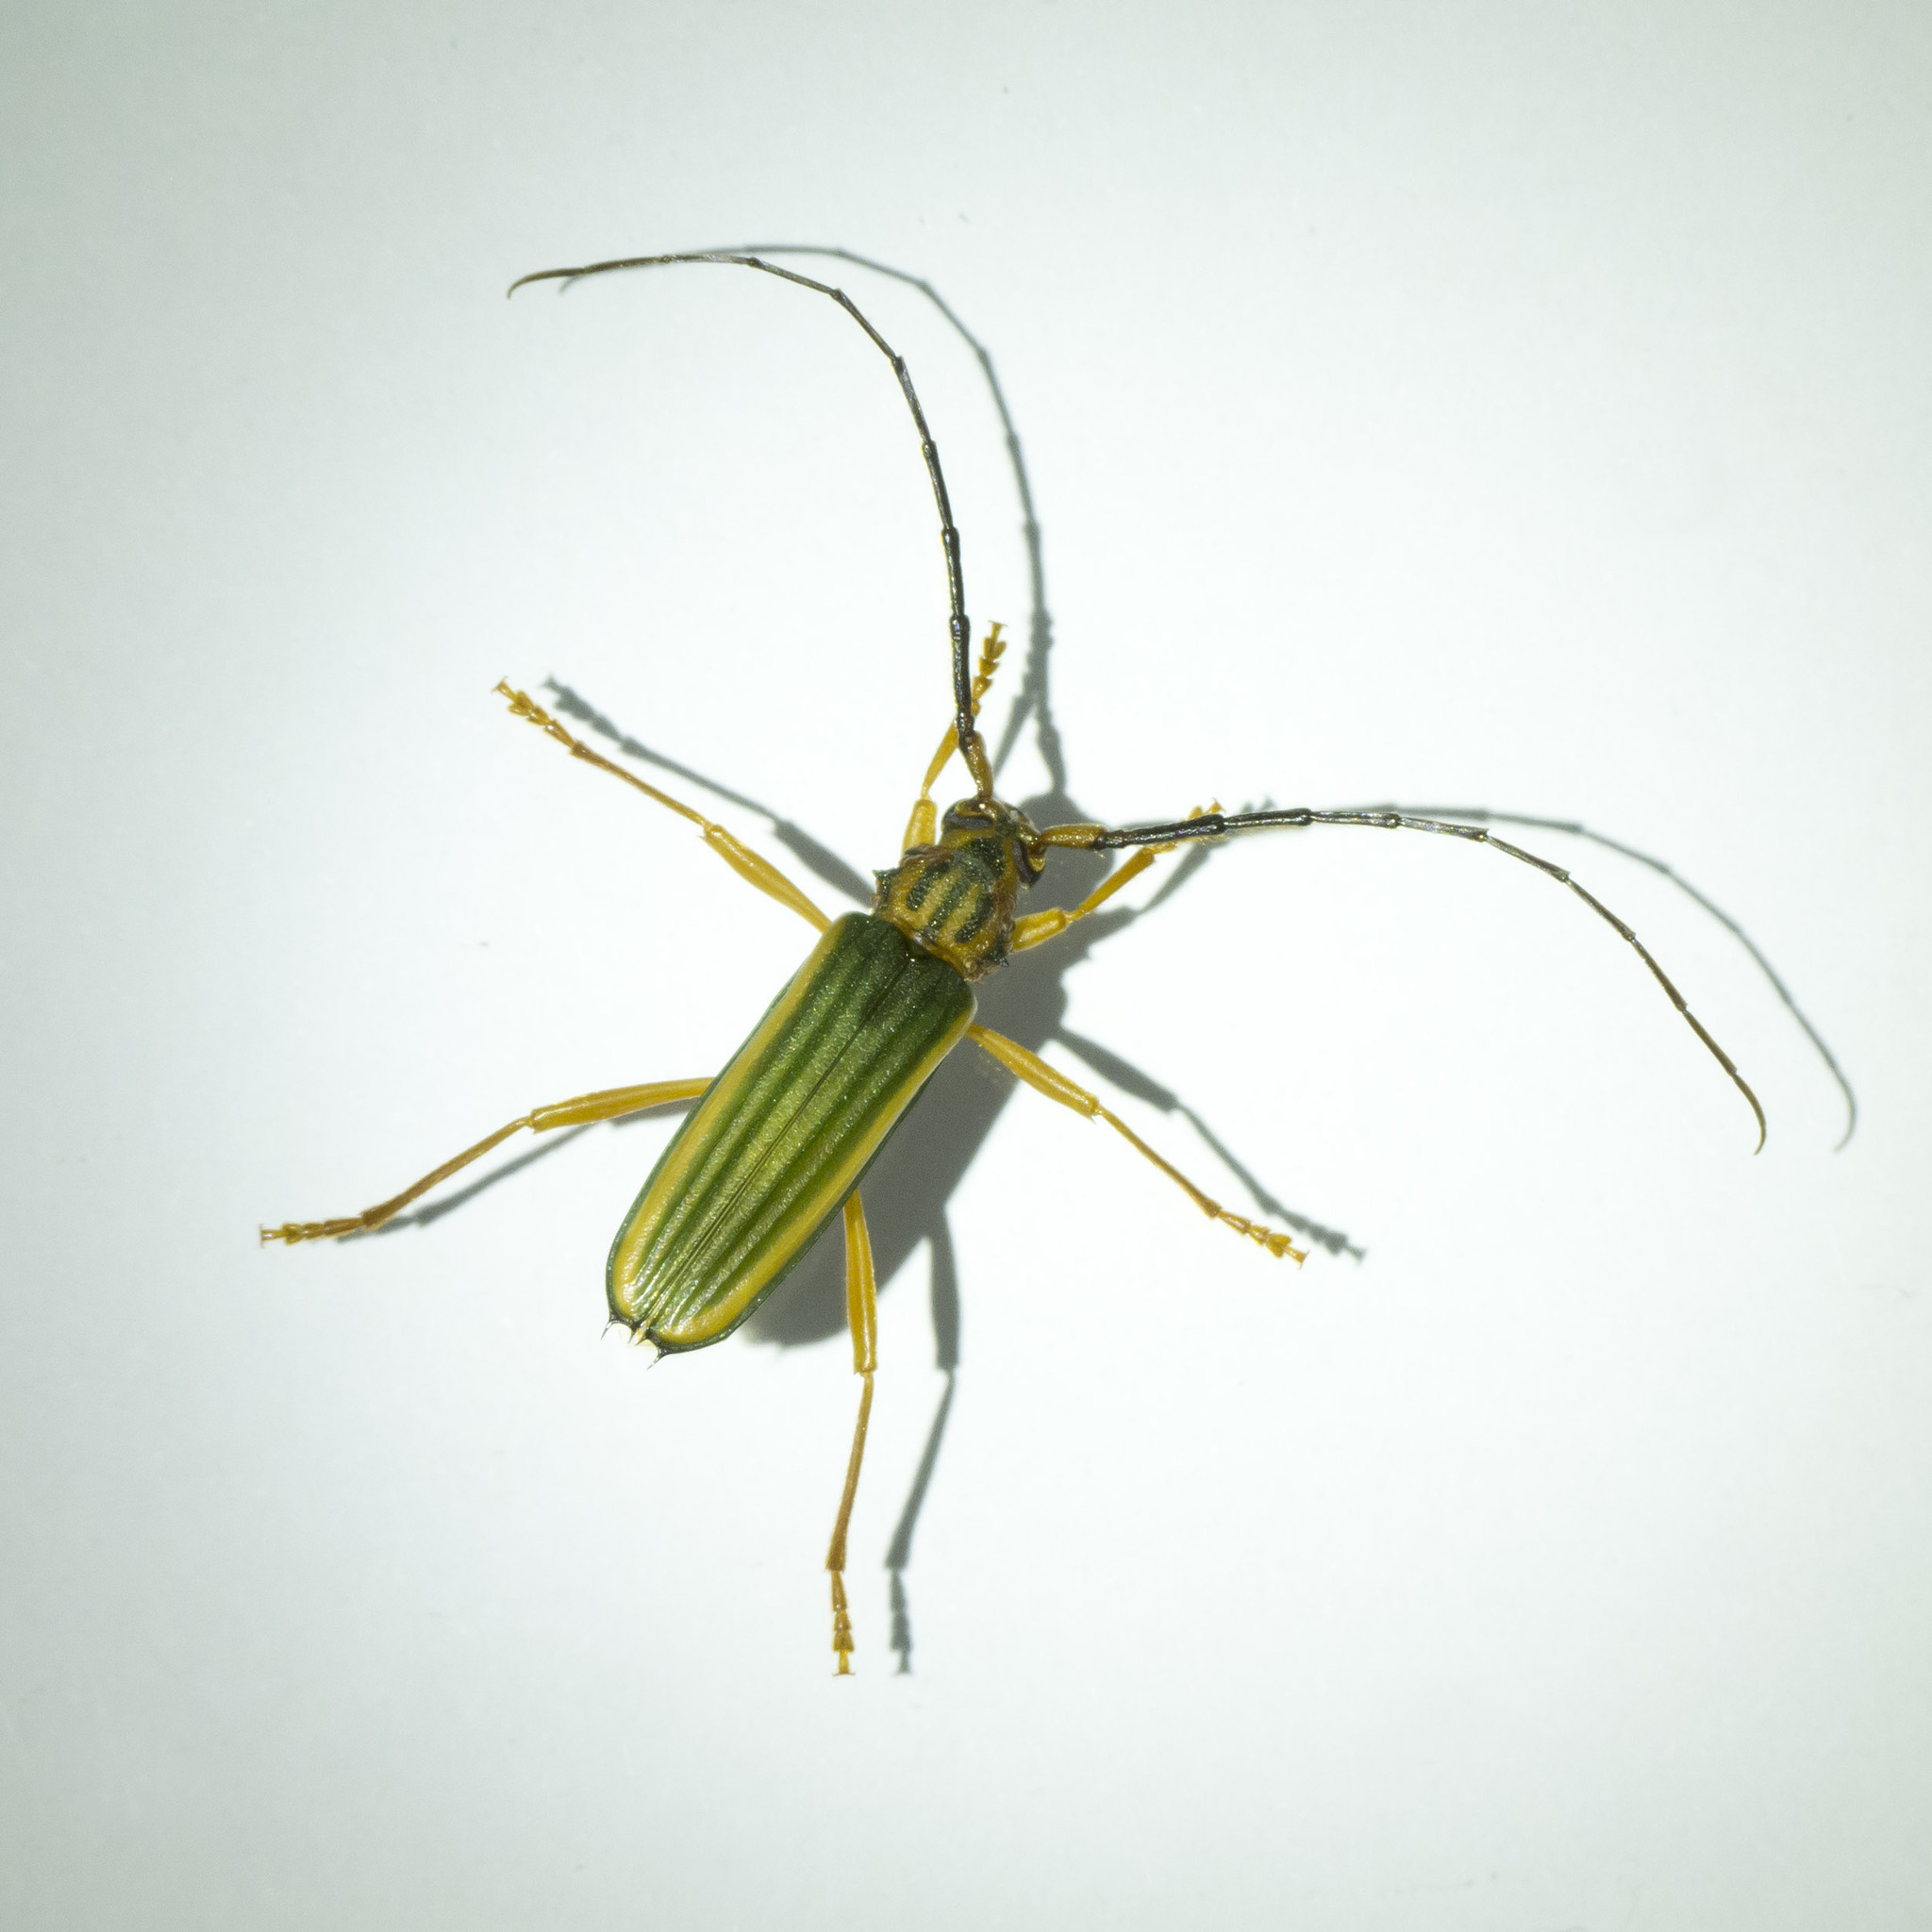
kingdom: Animalia
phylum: Arthropoda
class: Insecta
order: Coleoptera
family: Cerambycidae
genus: Chlorida
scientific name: Chlorida festiva
